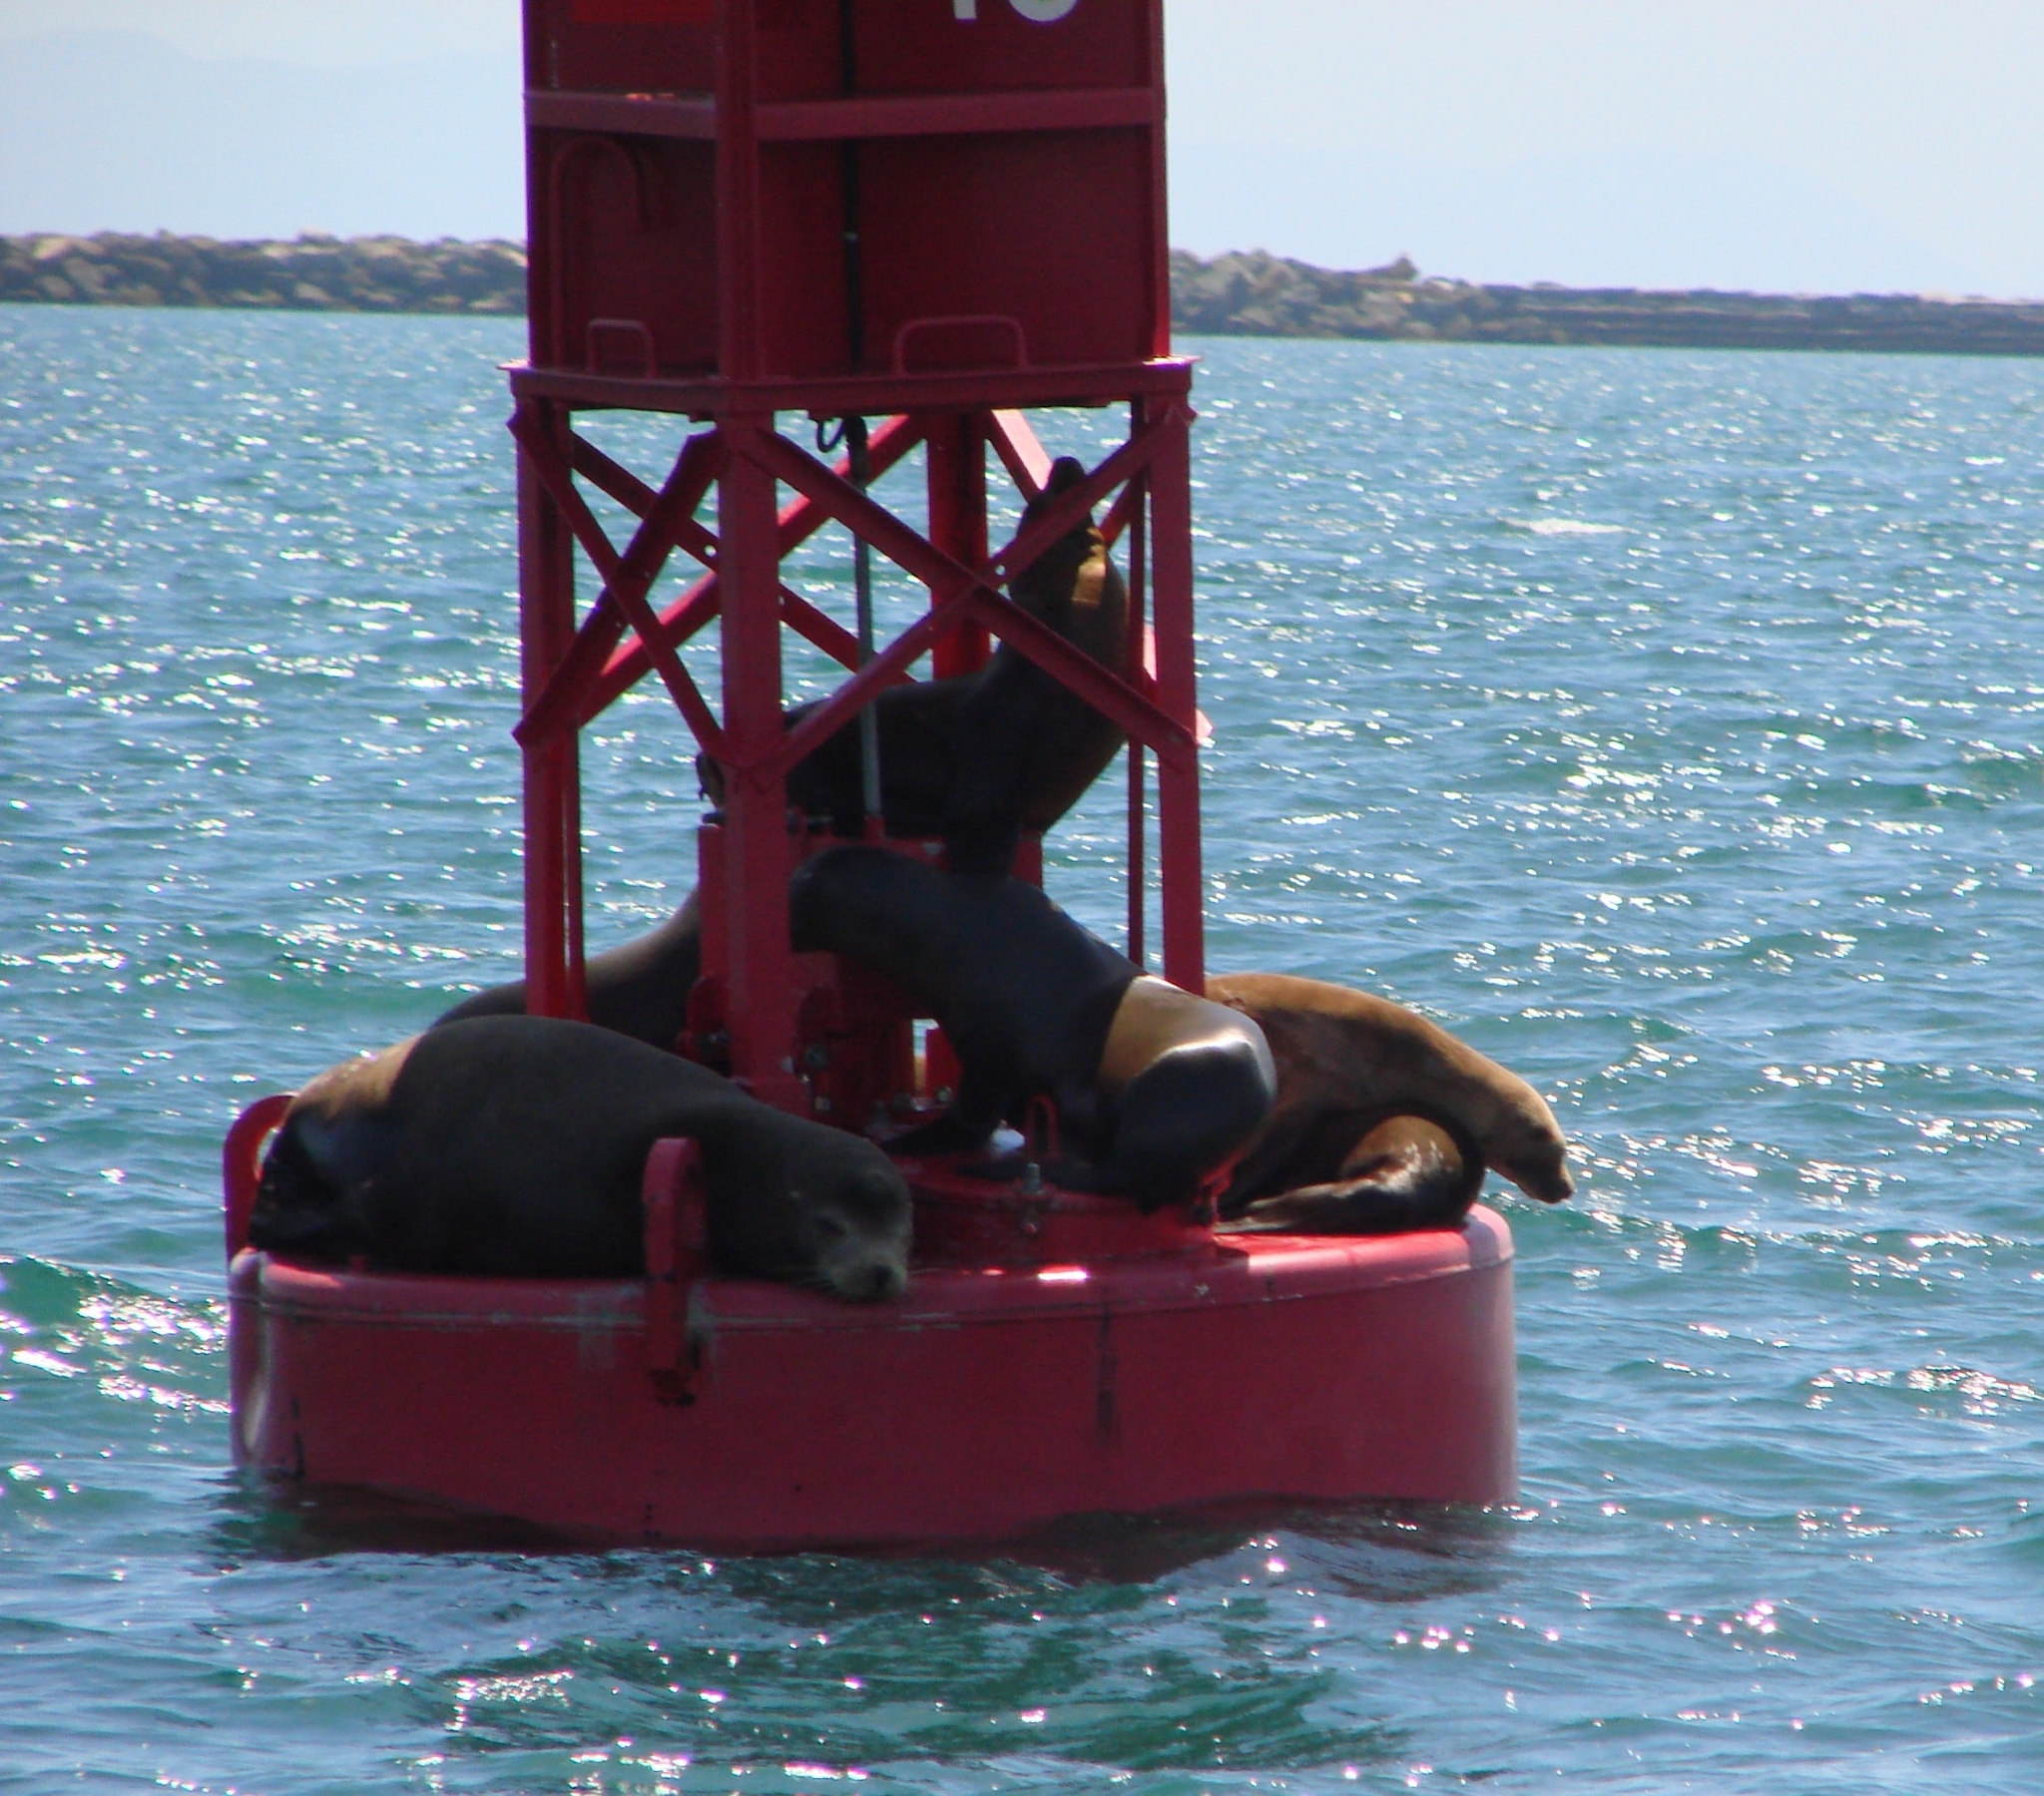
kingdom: Animalia
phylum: Chordata
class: Mammalia
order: Carnivora
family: Otariidae
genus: Zalophus
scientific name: Zalophus californianus
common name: California sea lion
